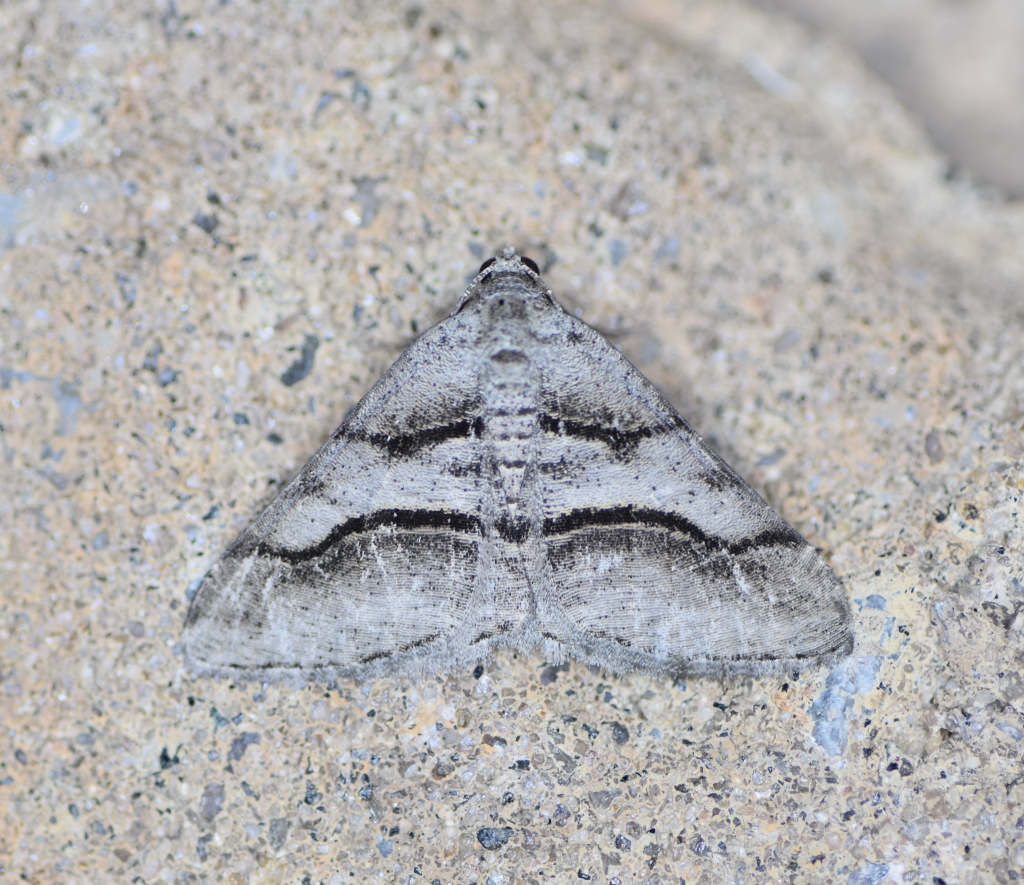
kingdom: Animalia
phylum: Arthropoda
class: Insecta
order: Lepidoptera
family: Geometridae
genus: Digrammia
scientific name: Digrammia continuata
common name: Curve-lined angle
